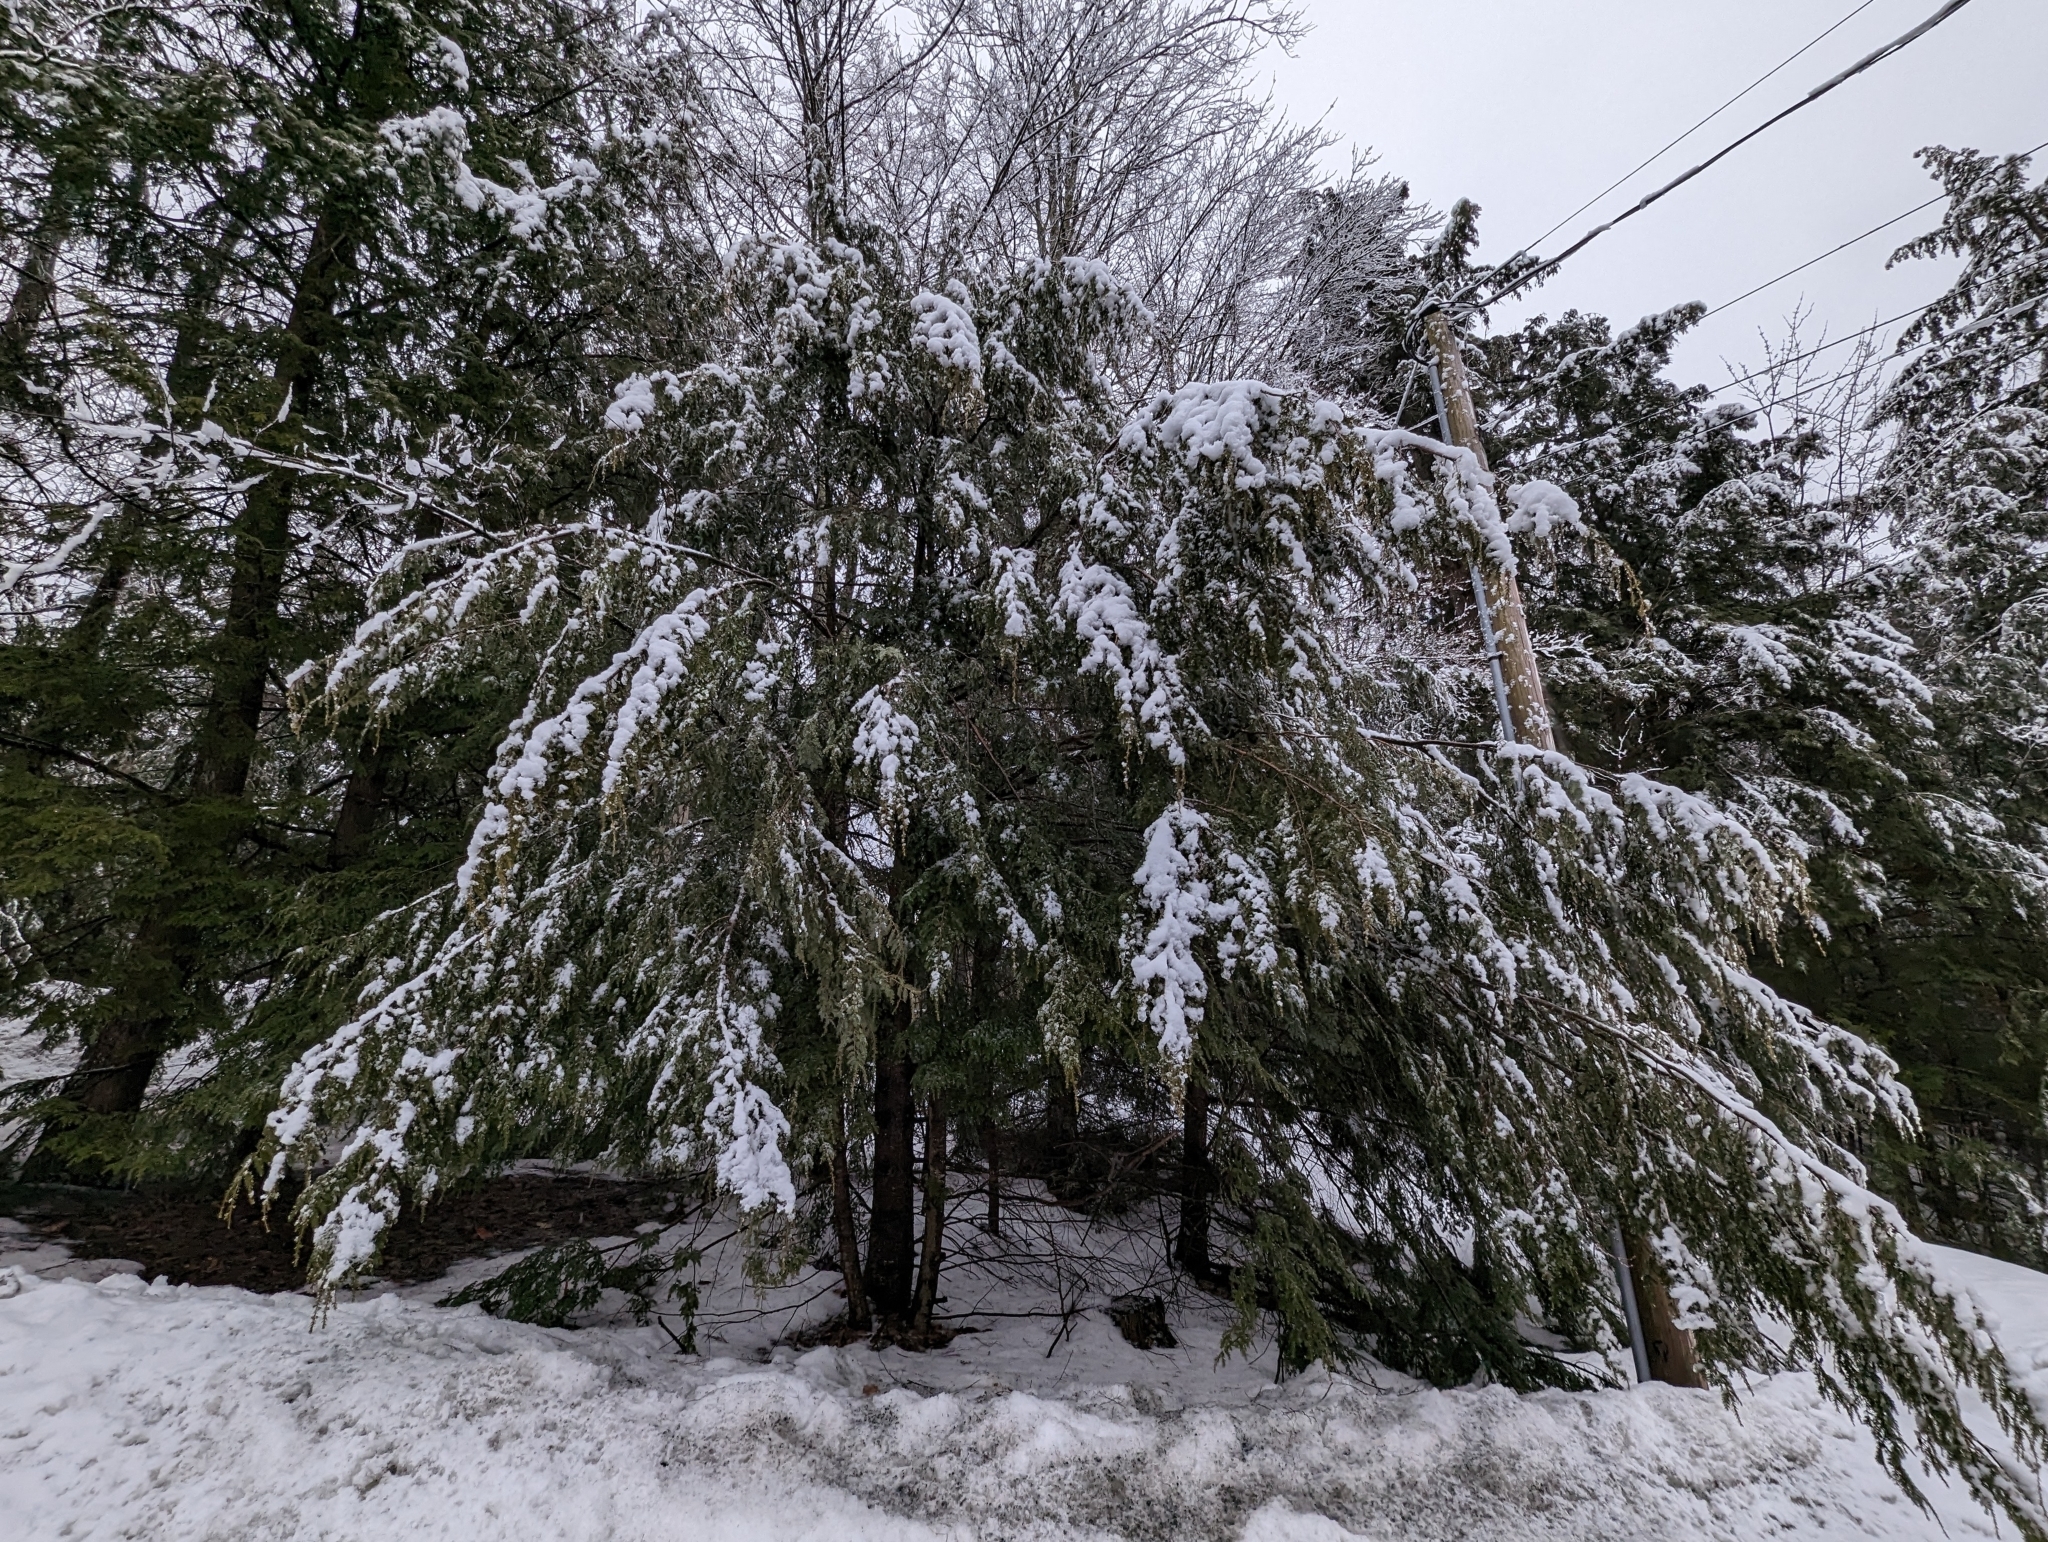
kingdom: Plantae
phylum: Tracheophyta
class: Pinopsida
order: Pinales
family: Pinaceae
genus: Tsuga
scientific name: Tsuga canadensis
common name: Eastern hemlock
